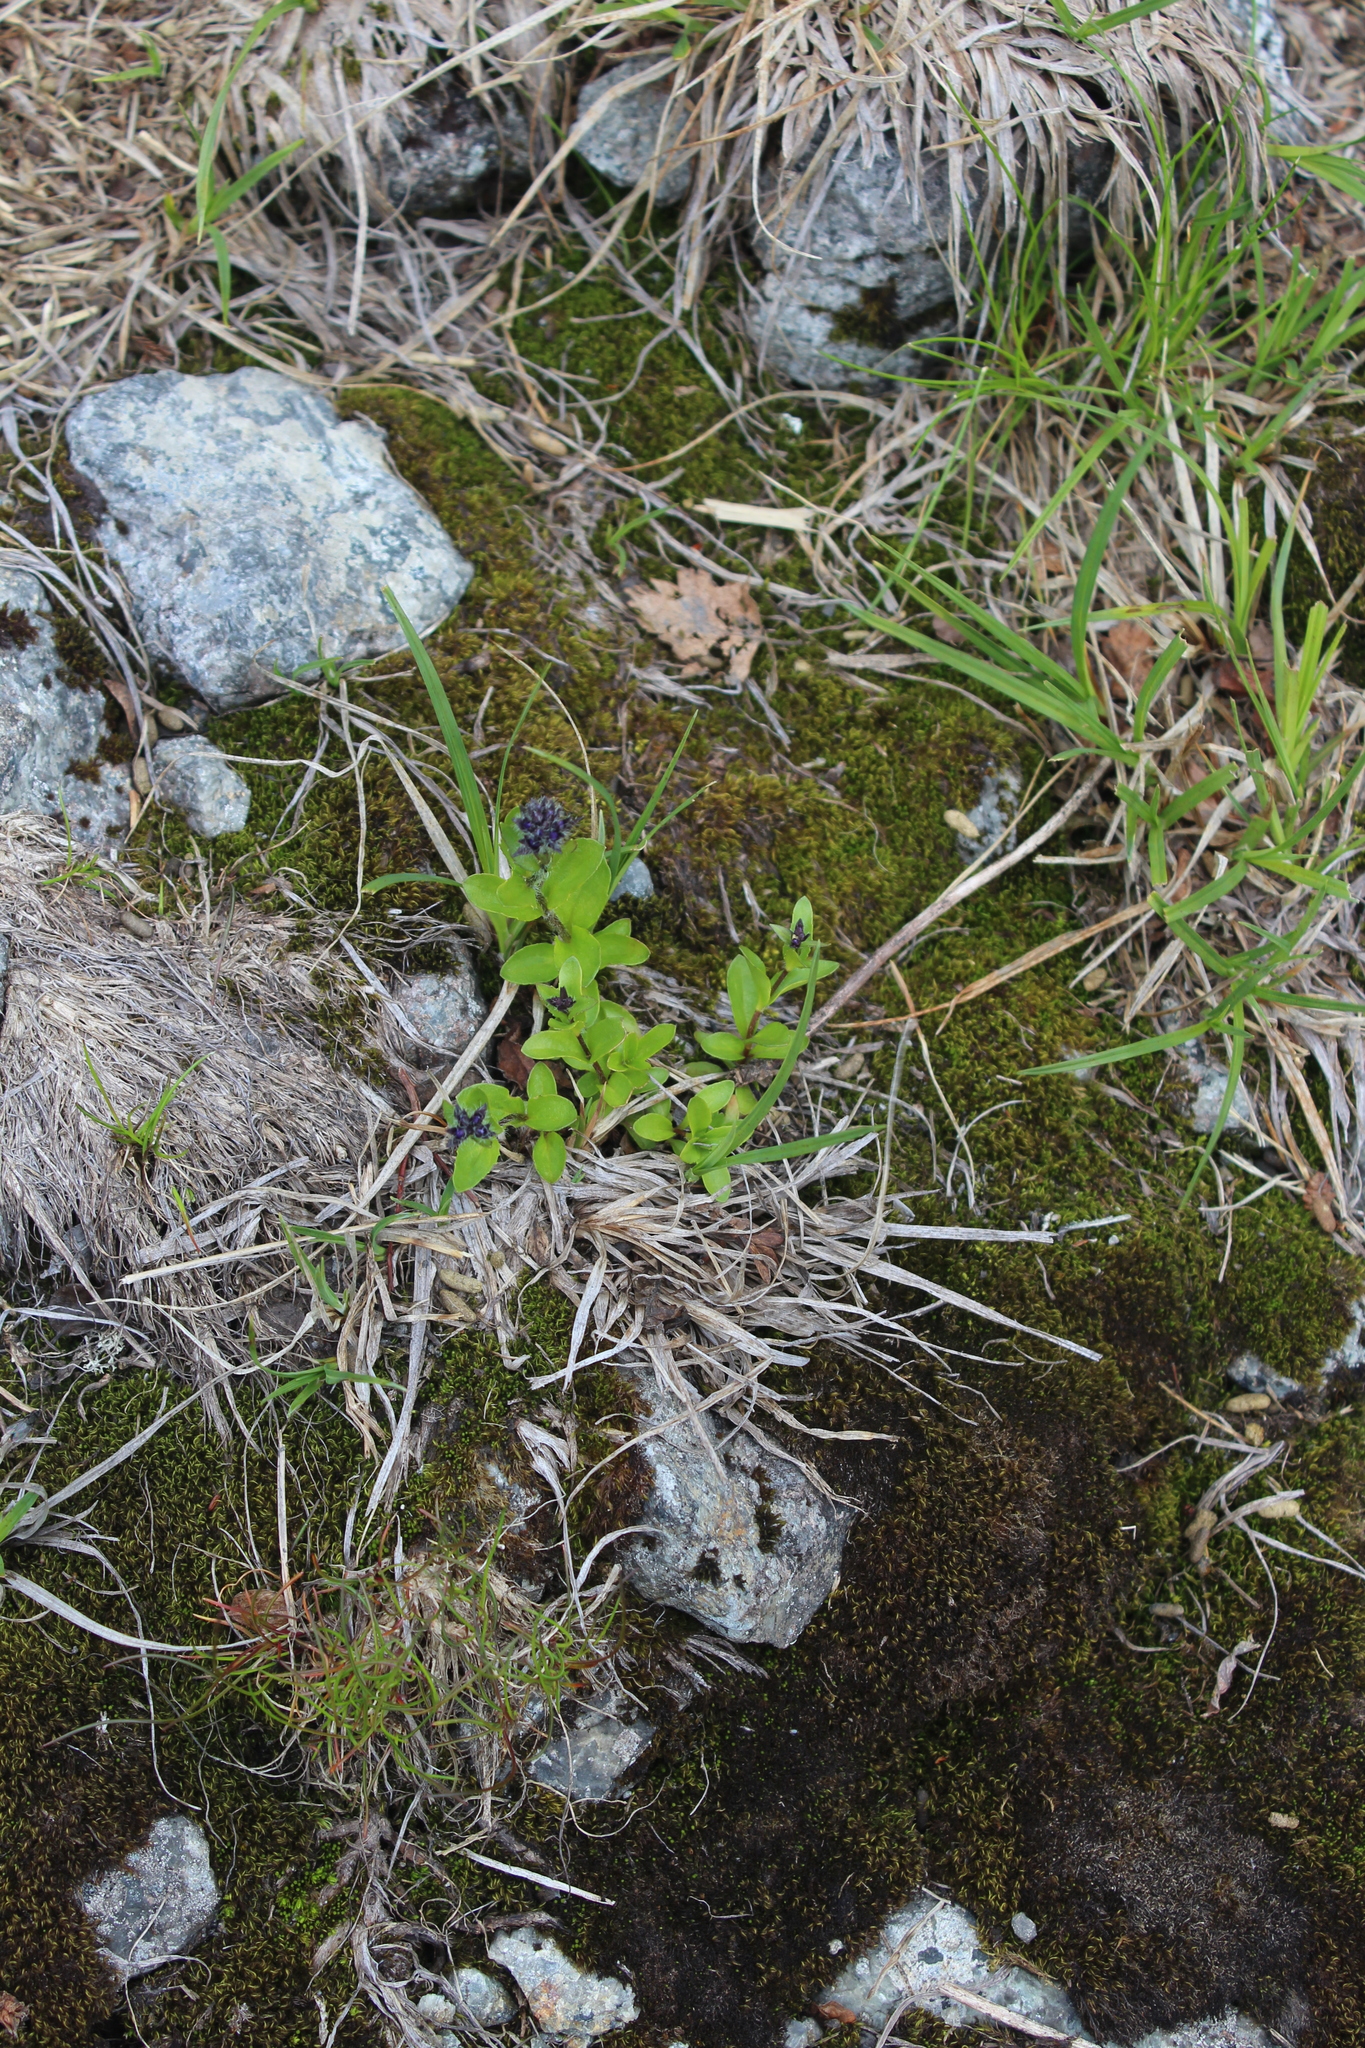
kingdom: Plantae
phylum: Tracheophyta
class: Magnoliopsida
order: Lamiales
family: Plantaginaceae
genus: Veronica
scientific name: Veronica alpina
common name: Alpine speedwell
